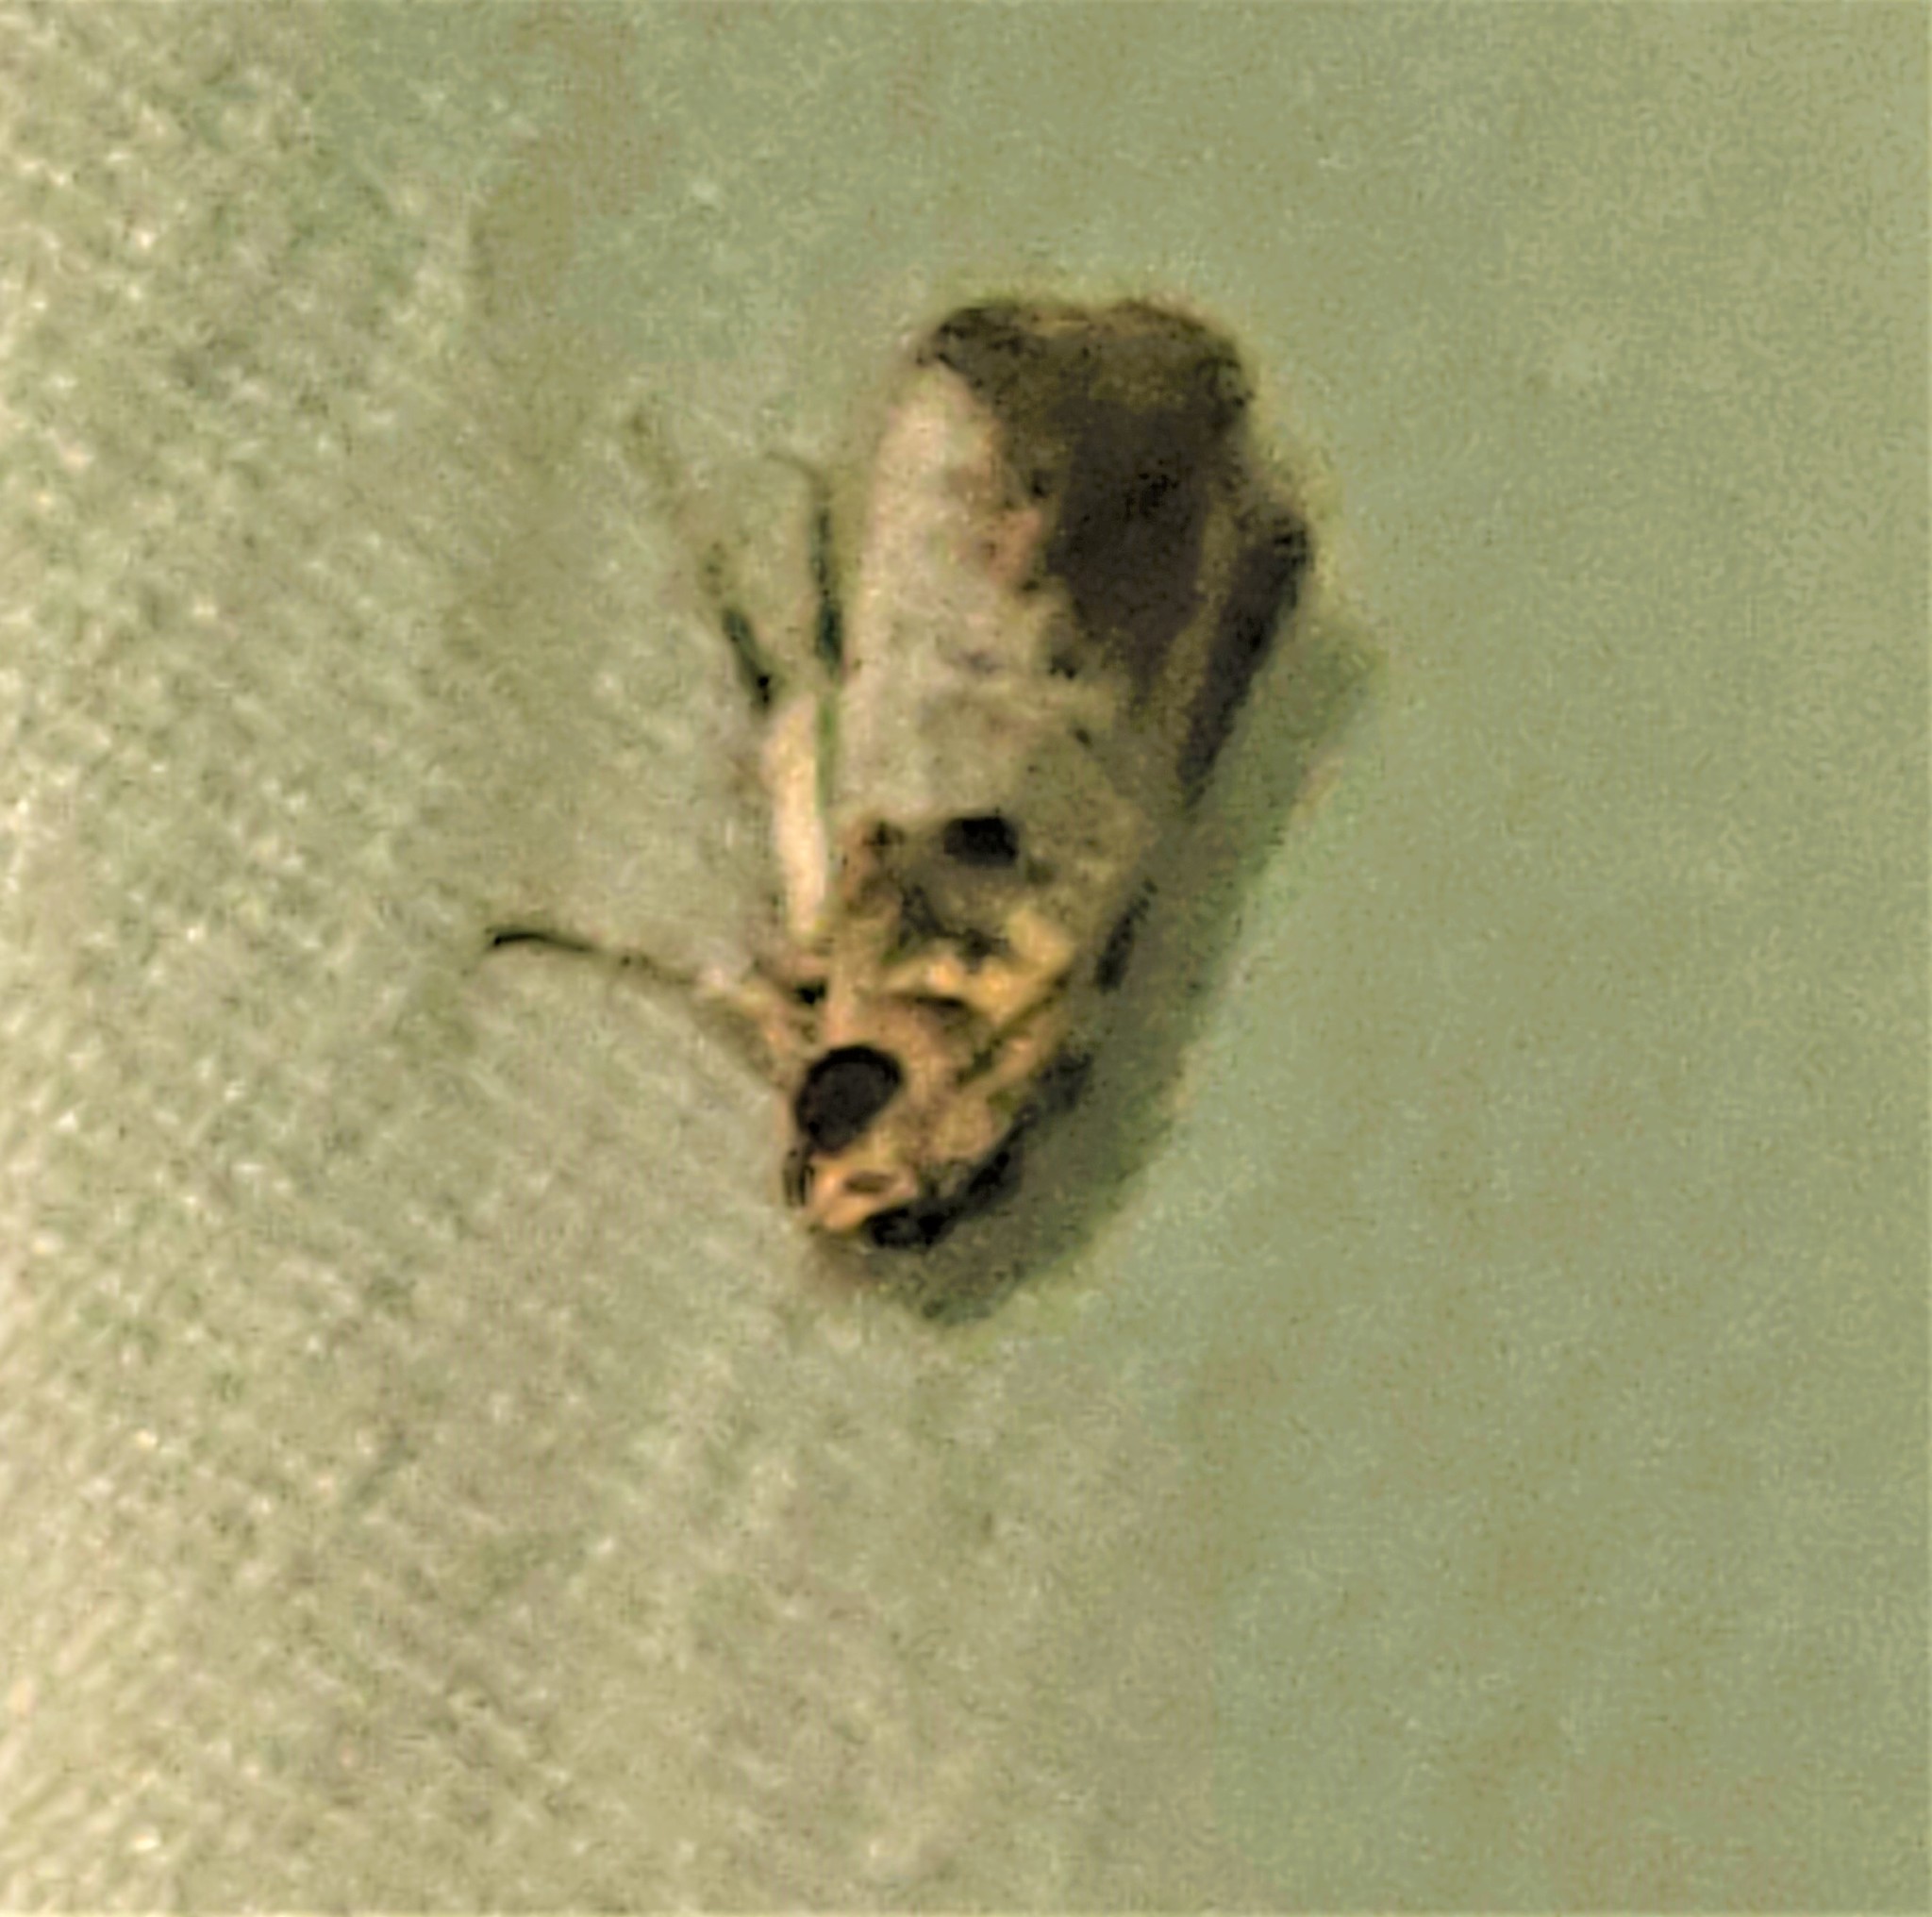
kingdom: Animalia
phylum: Arthropoda
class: Insecta
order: Lepidoptera
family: Pyralidae
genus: Chararica
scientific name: Chararica hystriculella
